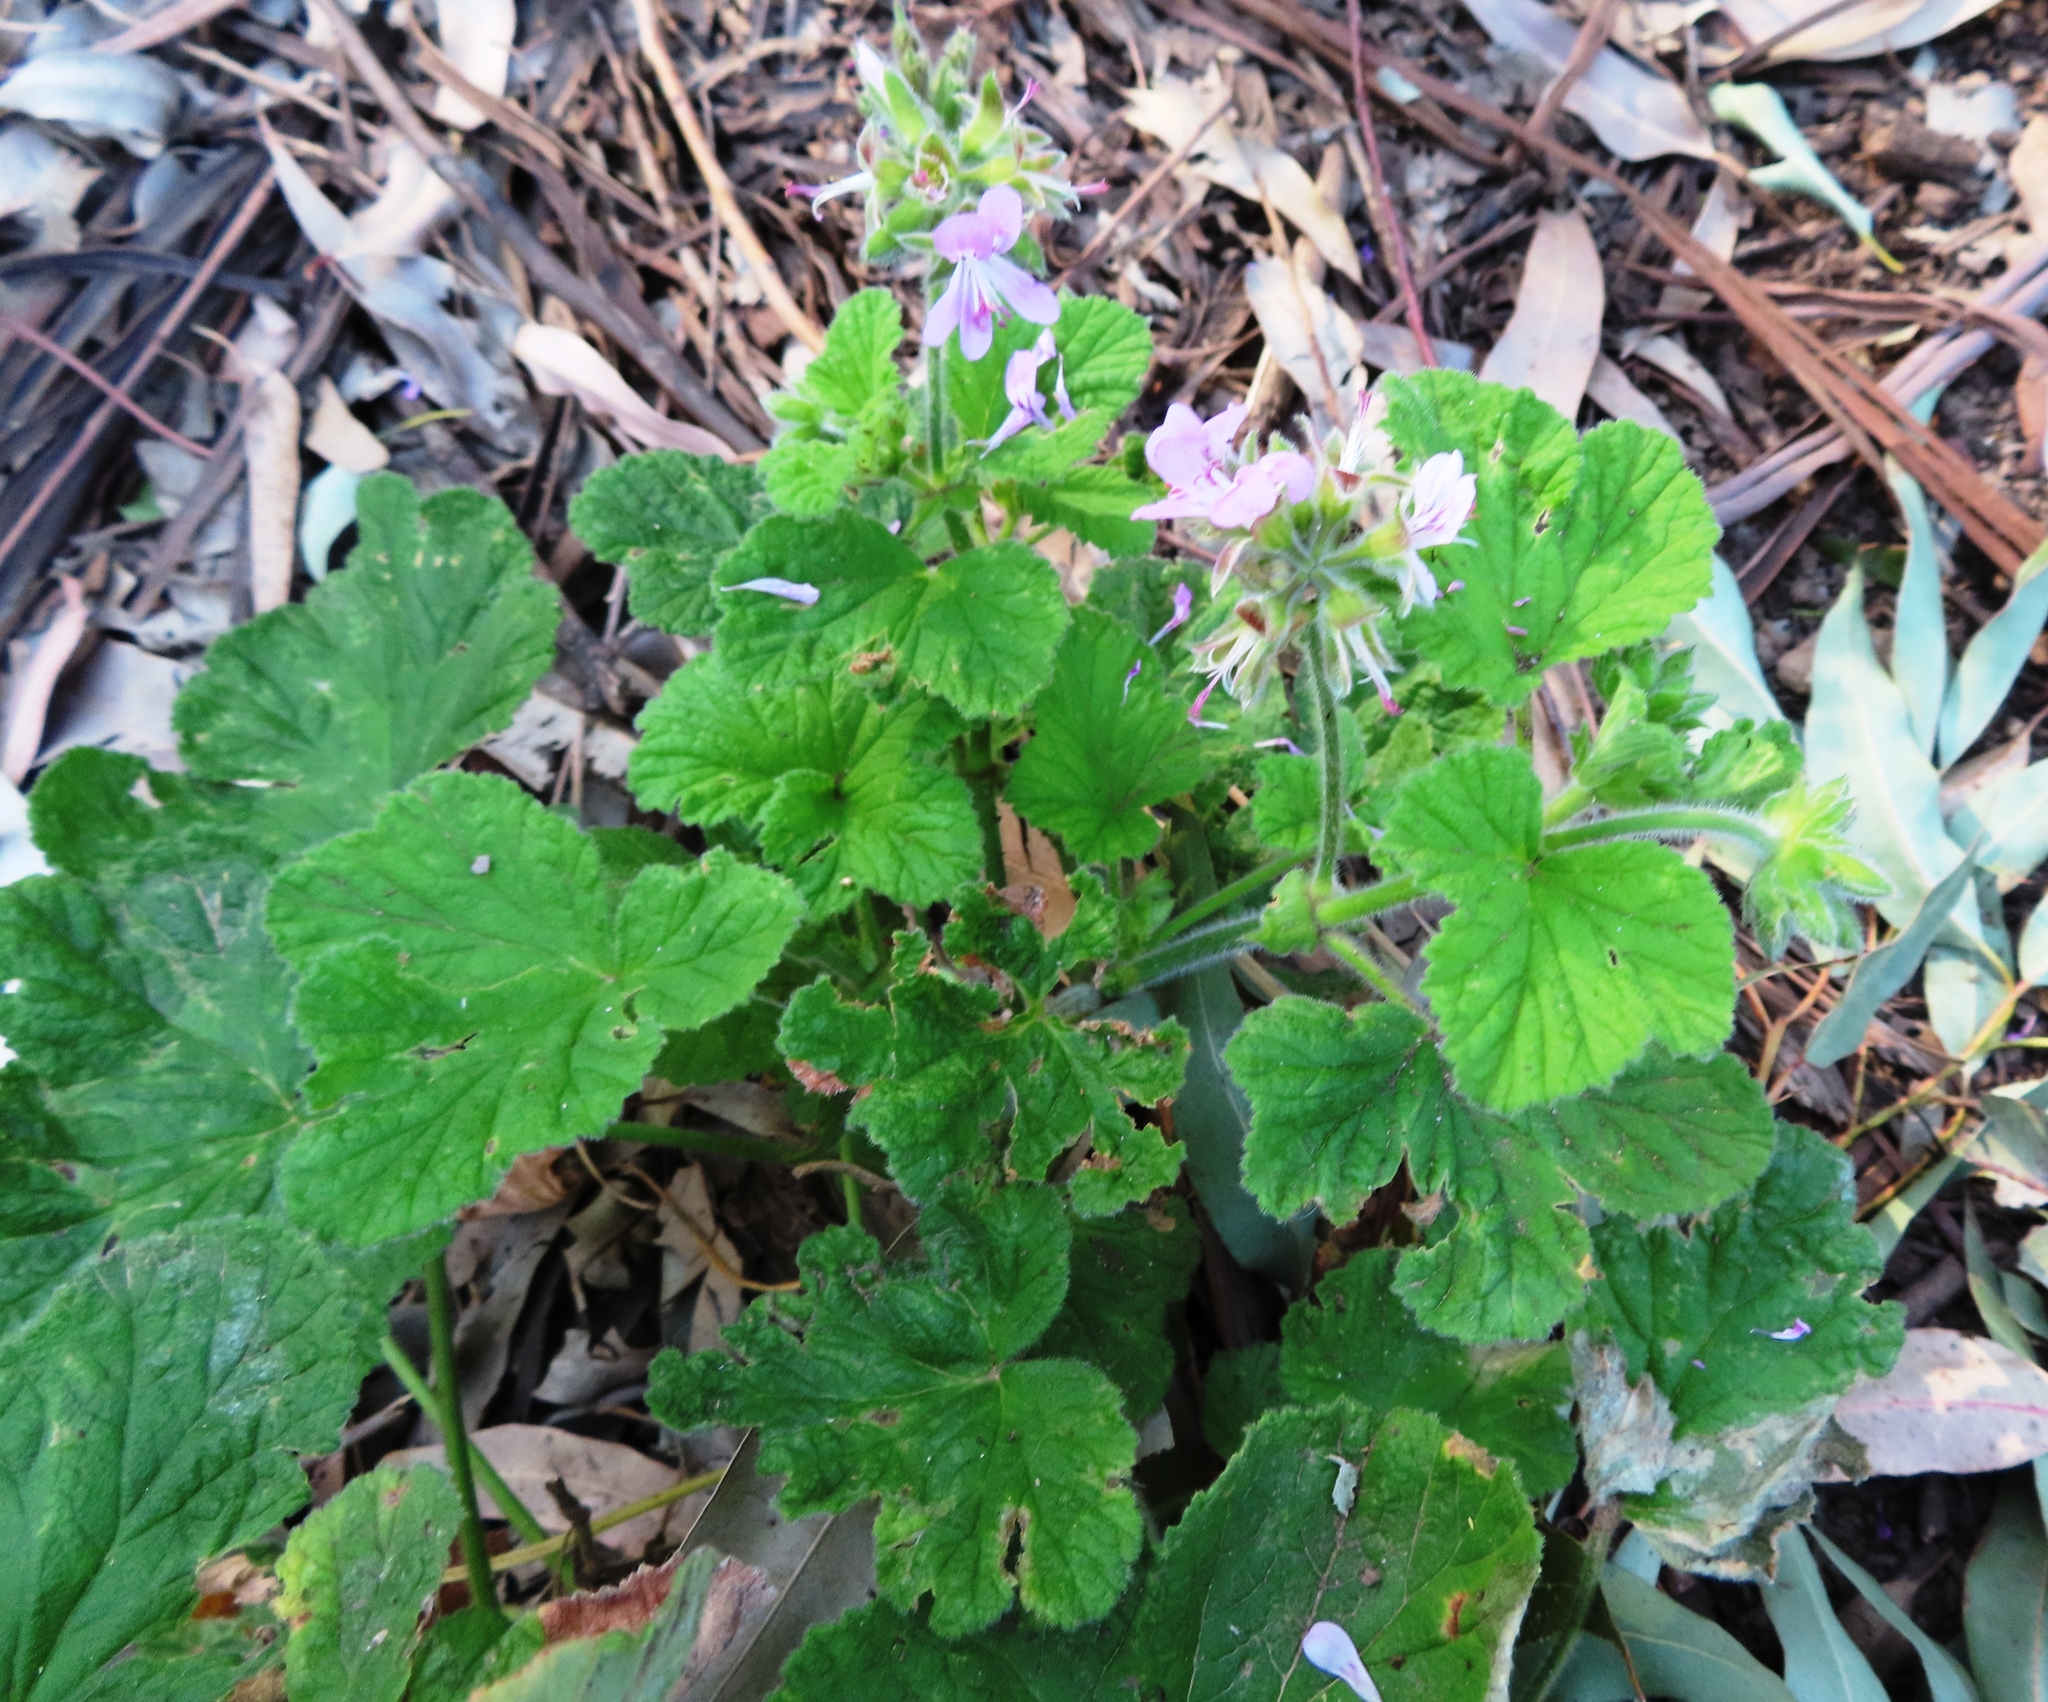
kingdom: Plantae
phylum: Tracheophyta
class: Magnoliopsida
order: Geraniales
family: Geraniaceae
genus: Pelargonium
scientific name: Pelargonium vitifolium
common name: Grapeleaf geranium
